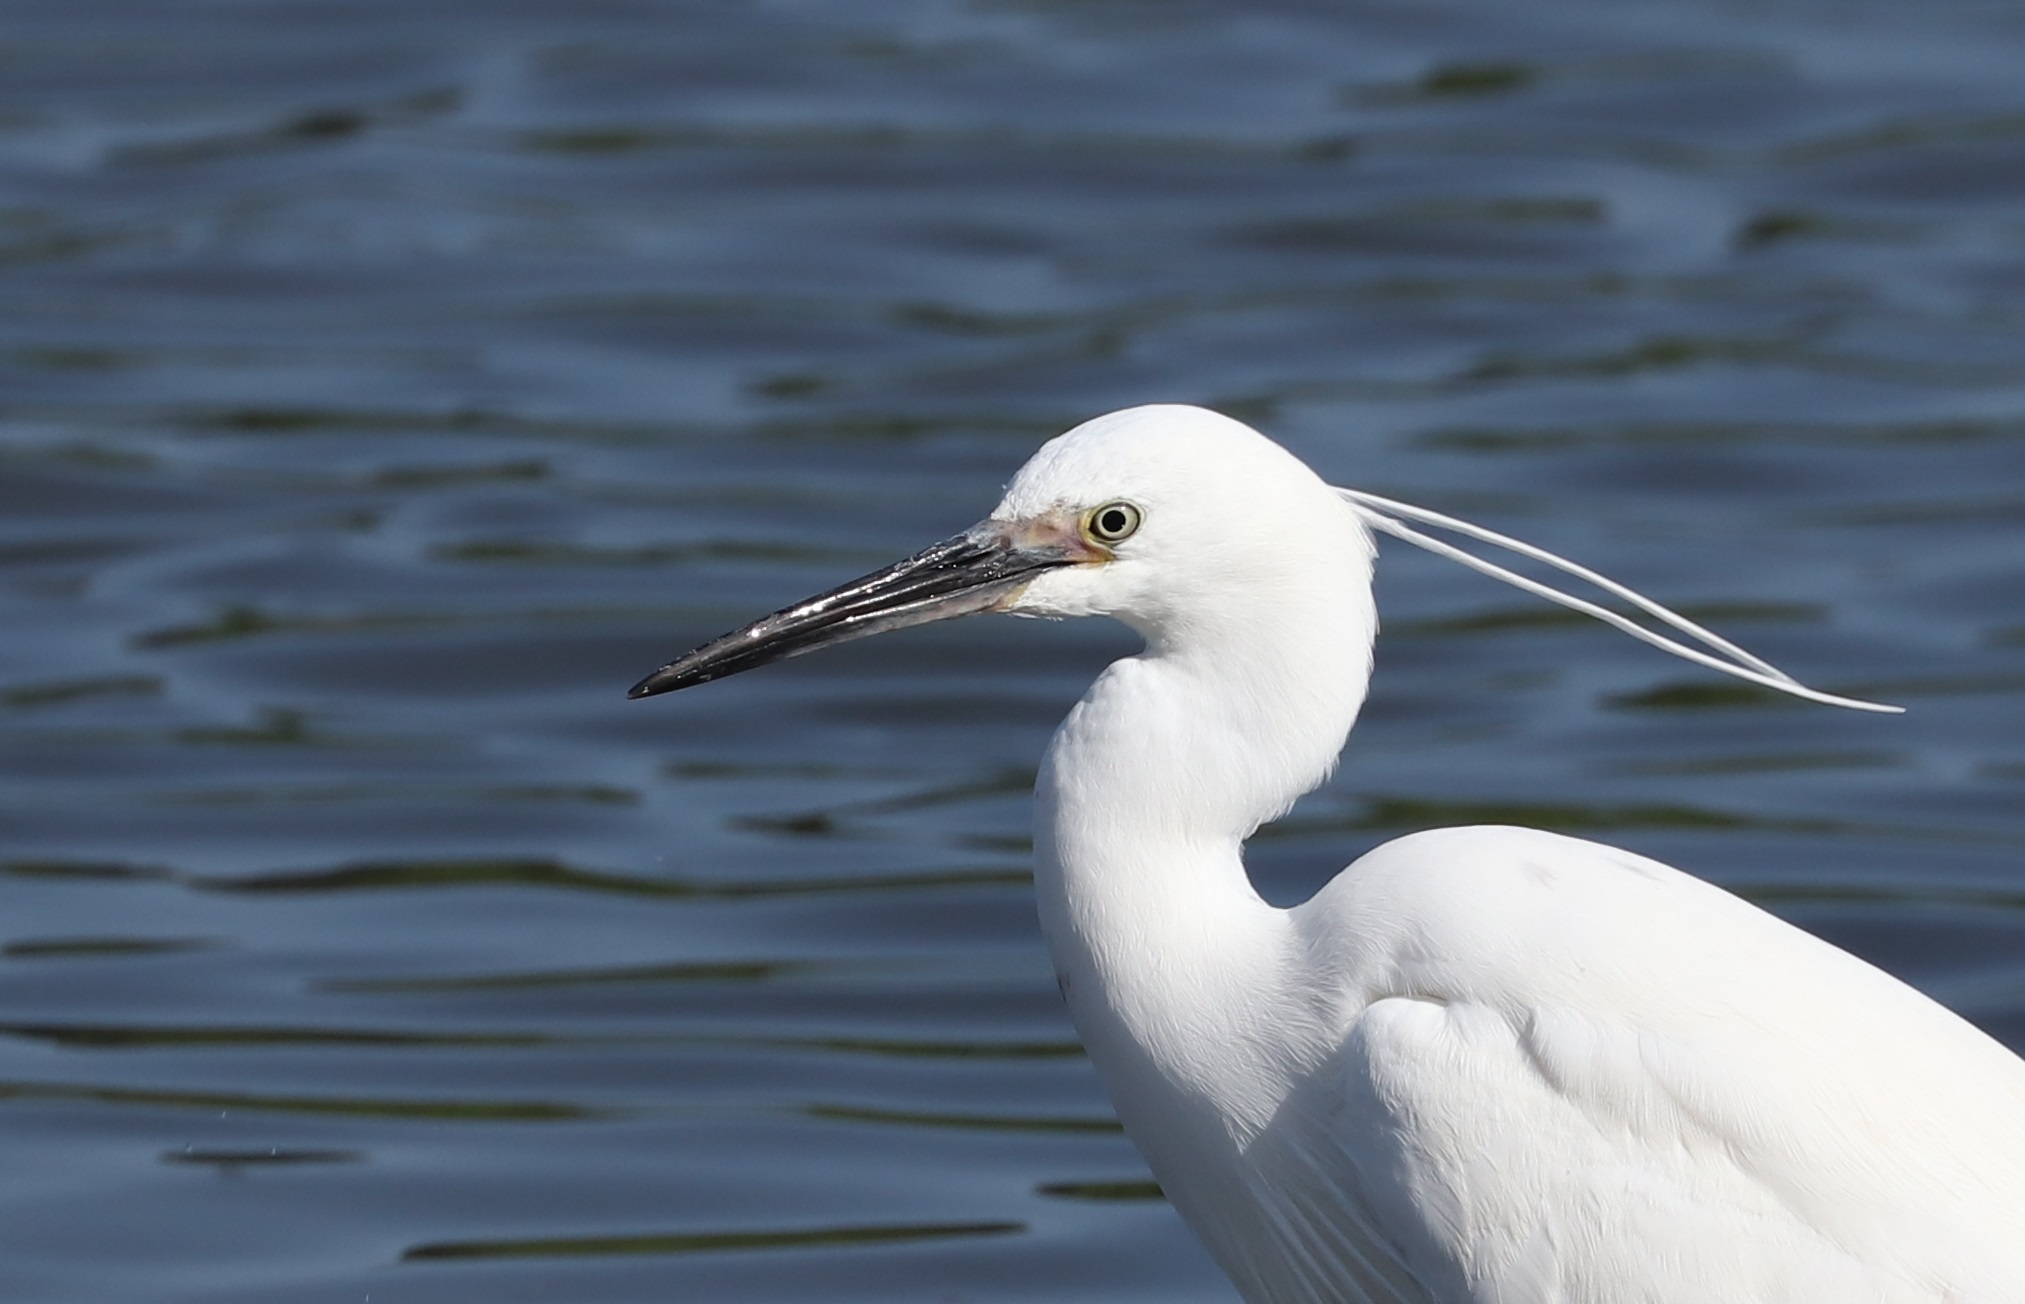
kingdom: Animalia
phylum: Chordata
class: Aves
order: Pelecaniformes
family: Ardeidae
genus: Egretta
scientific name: Egretta garzetta
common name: Little egret
